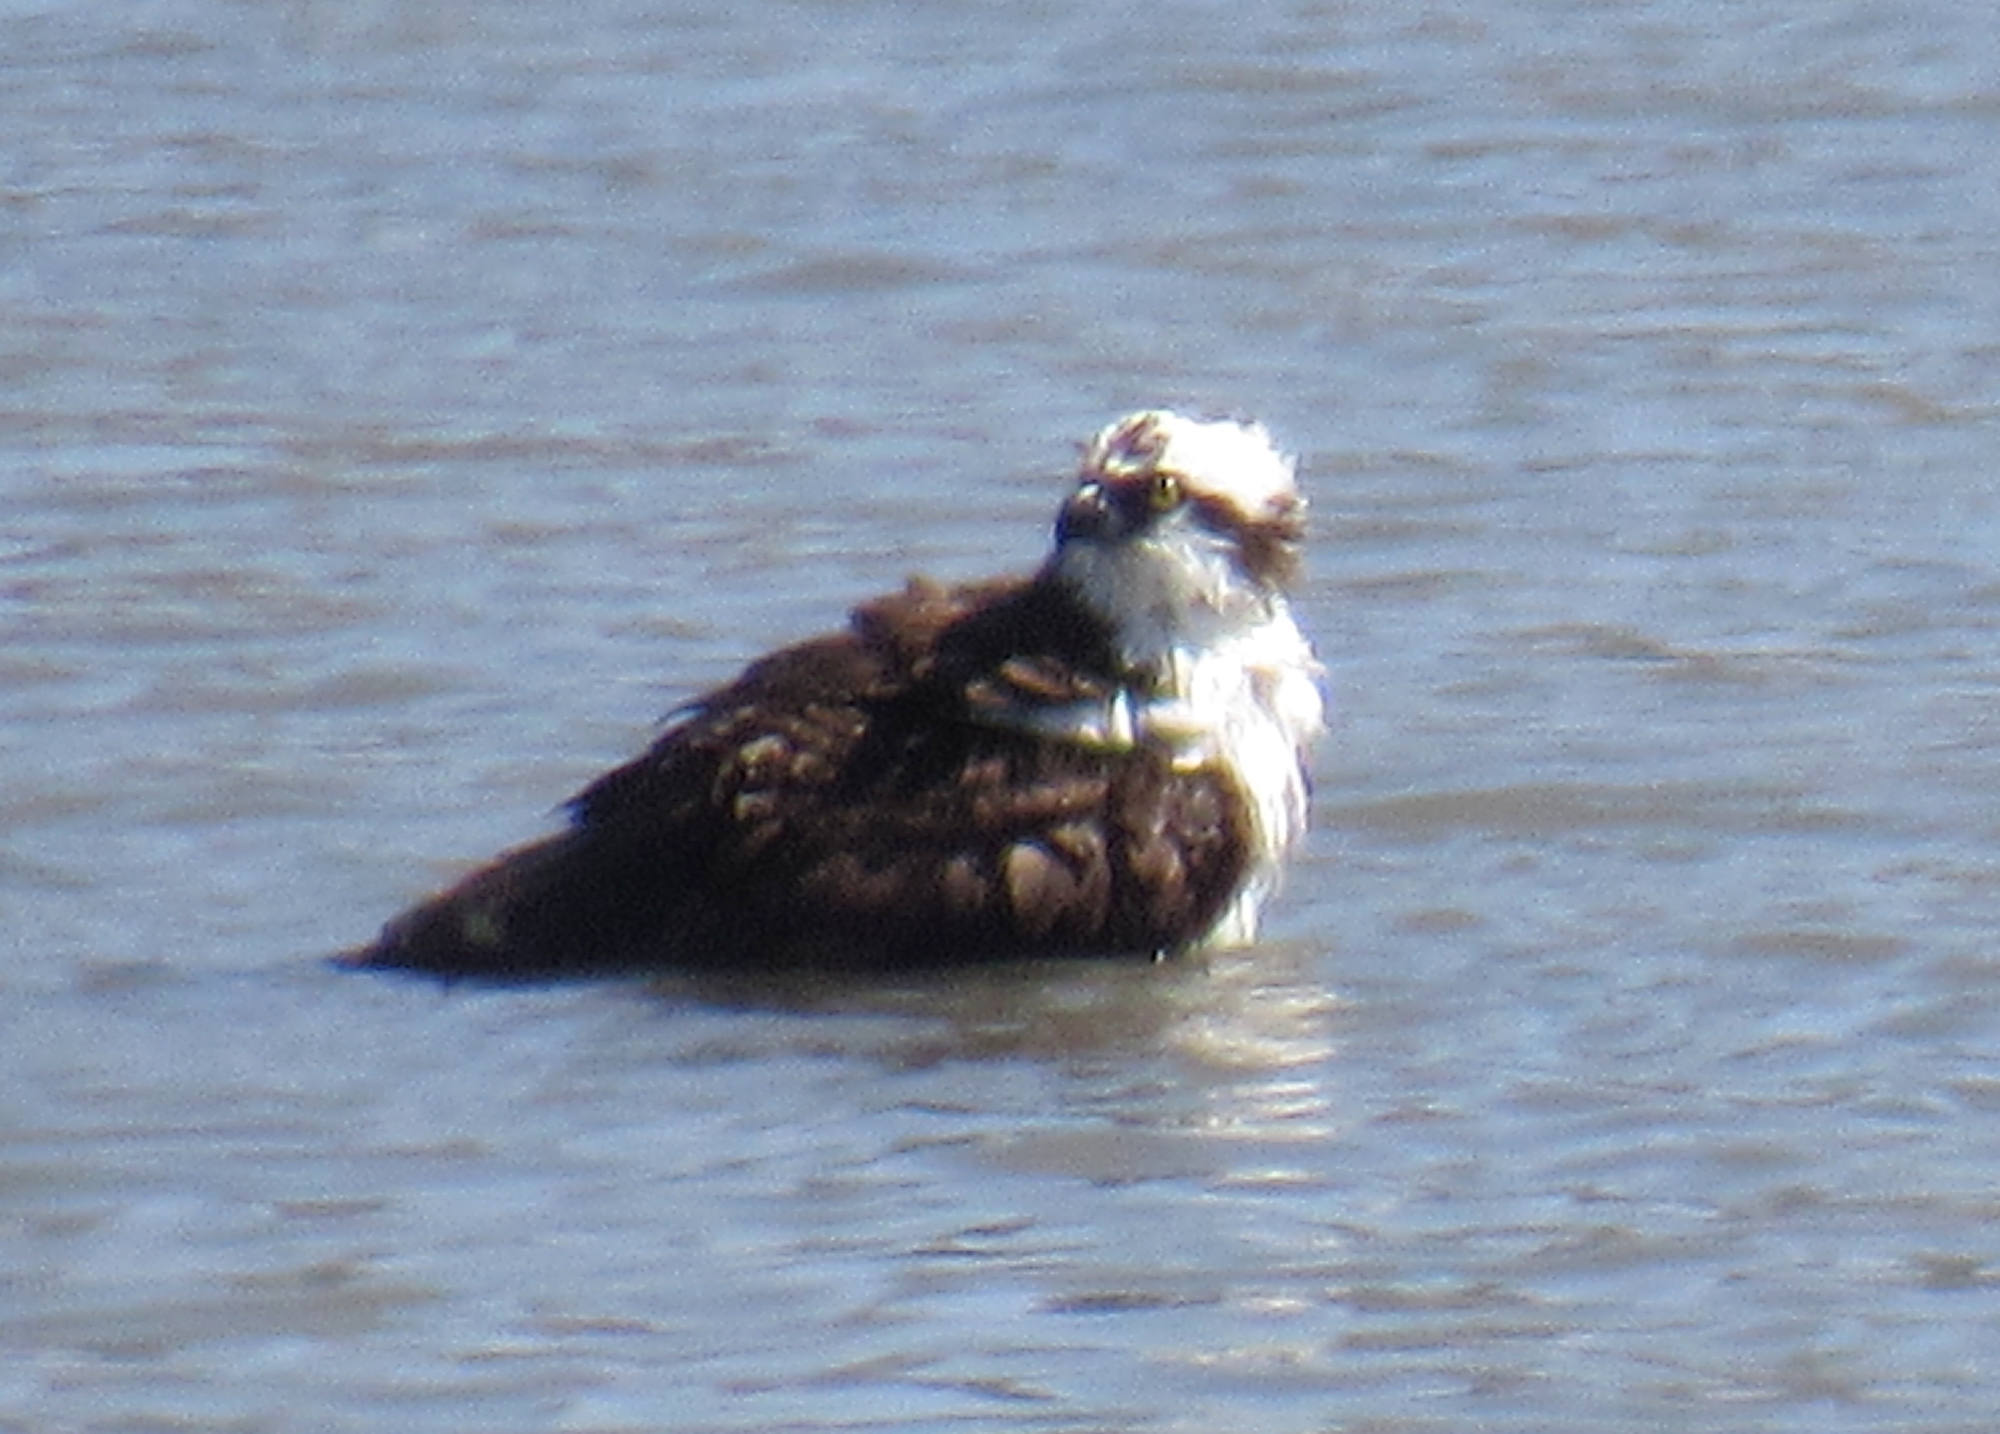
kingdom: Animalia
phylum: Chordata
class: Aves
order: Accipitriformes
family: Pandionidae
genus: Pandion
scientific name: Pandion haliaetus
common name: Osprey
